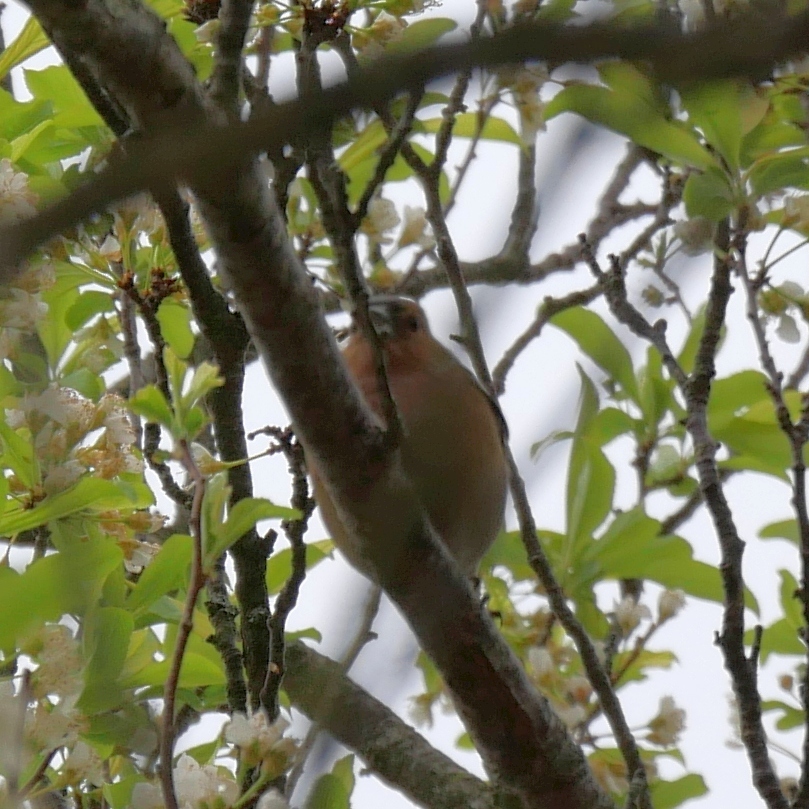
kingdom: Animalia
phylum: Chordata
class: Aves
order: Passeriformes
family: Fringillidae
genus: Fringilla
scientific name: Fringilla coelebs
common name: Common chaffinch
